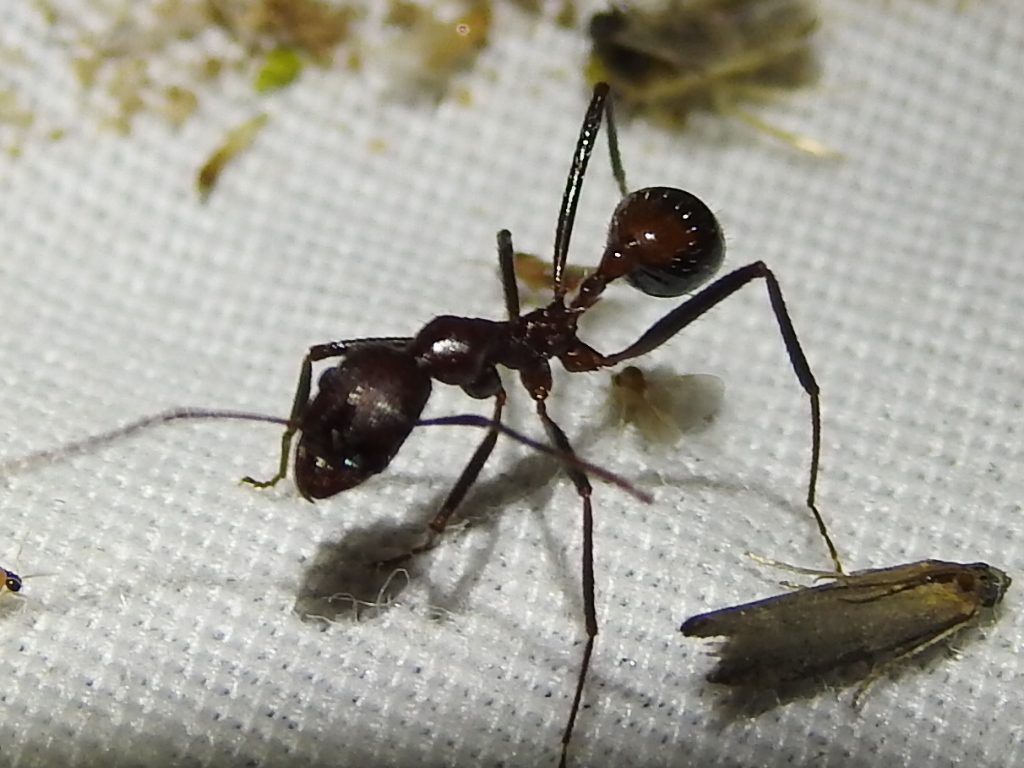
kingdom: Animalia
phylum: Arthropoda
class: Insecta
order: Hymenoptera
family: Formicidae
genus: Novomessor
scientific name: Novomessor cockerelli
